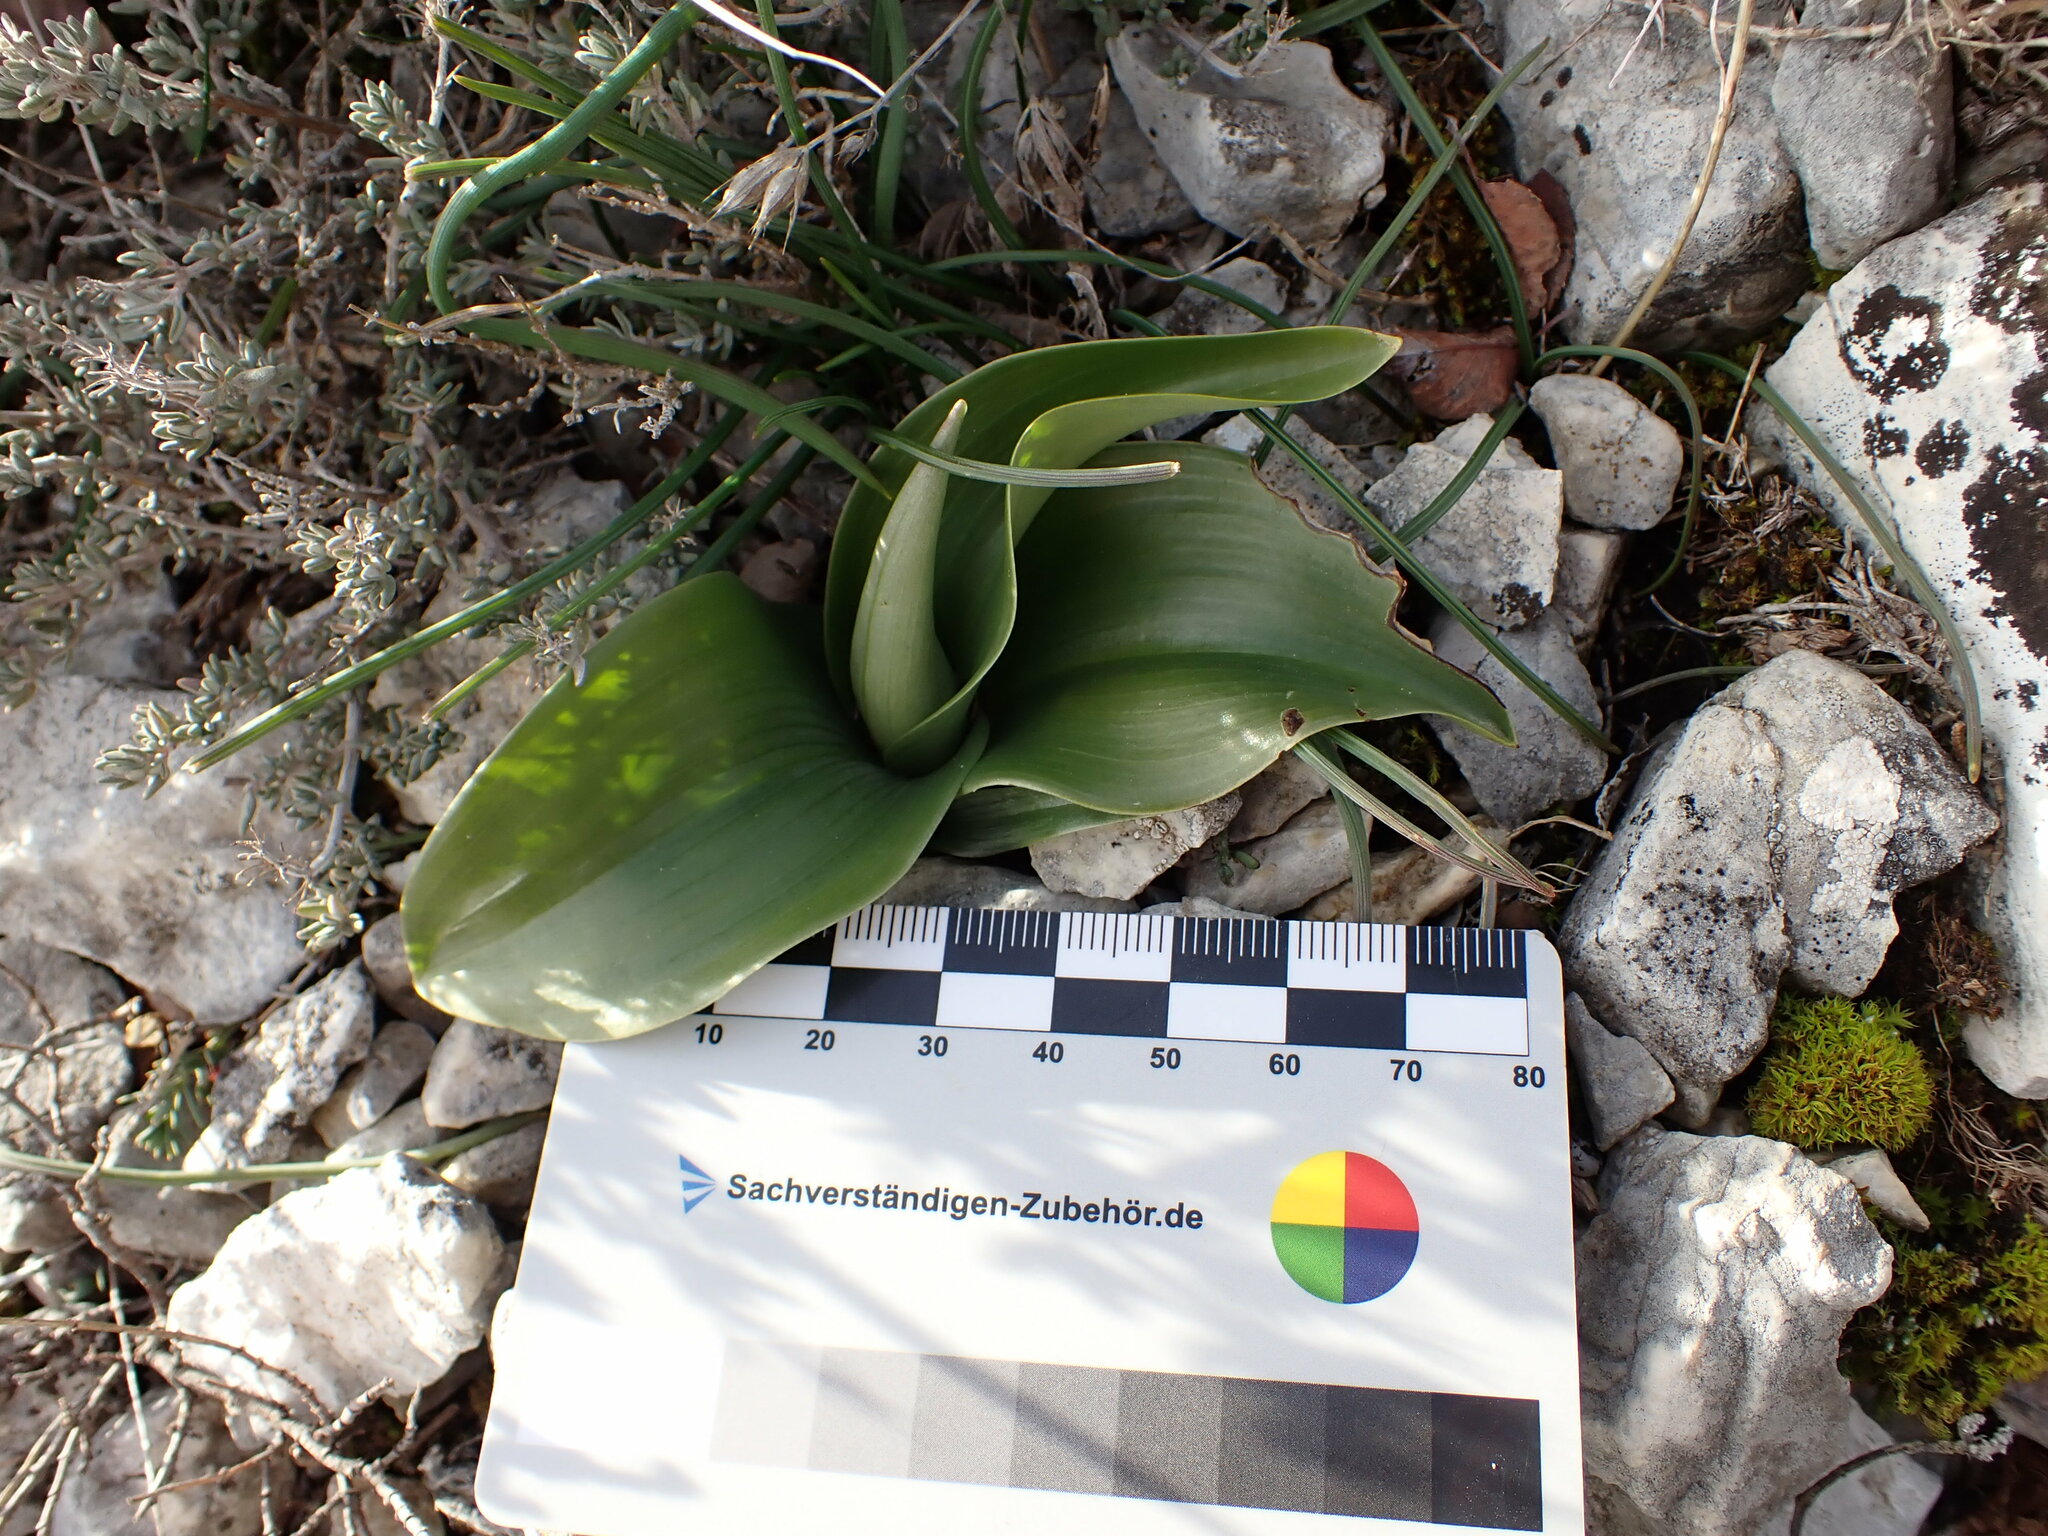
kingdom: Plantae
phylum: Tracheophyta
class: Liliopsida
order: Asparagales
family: Orchidaceae
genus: Himantoglossum
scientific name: Himantoglossum robertianum
